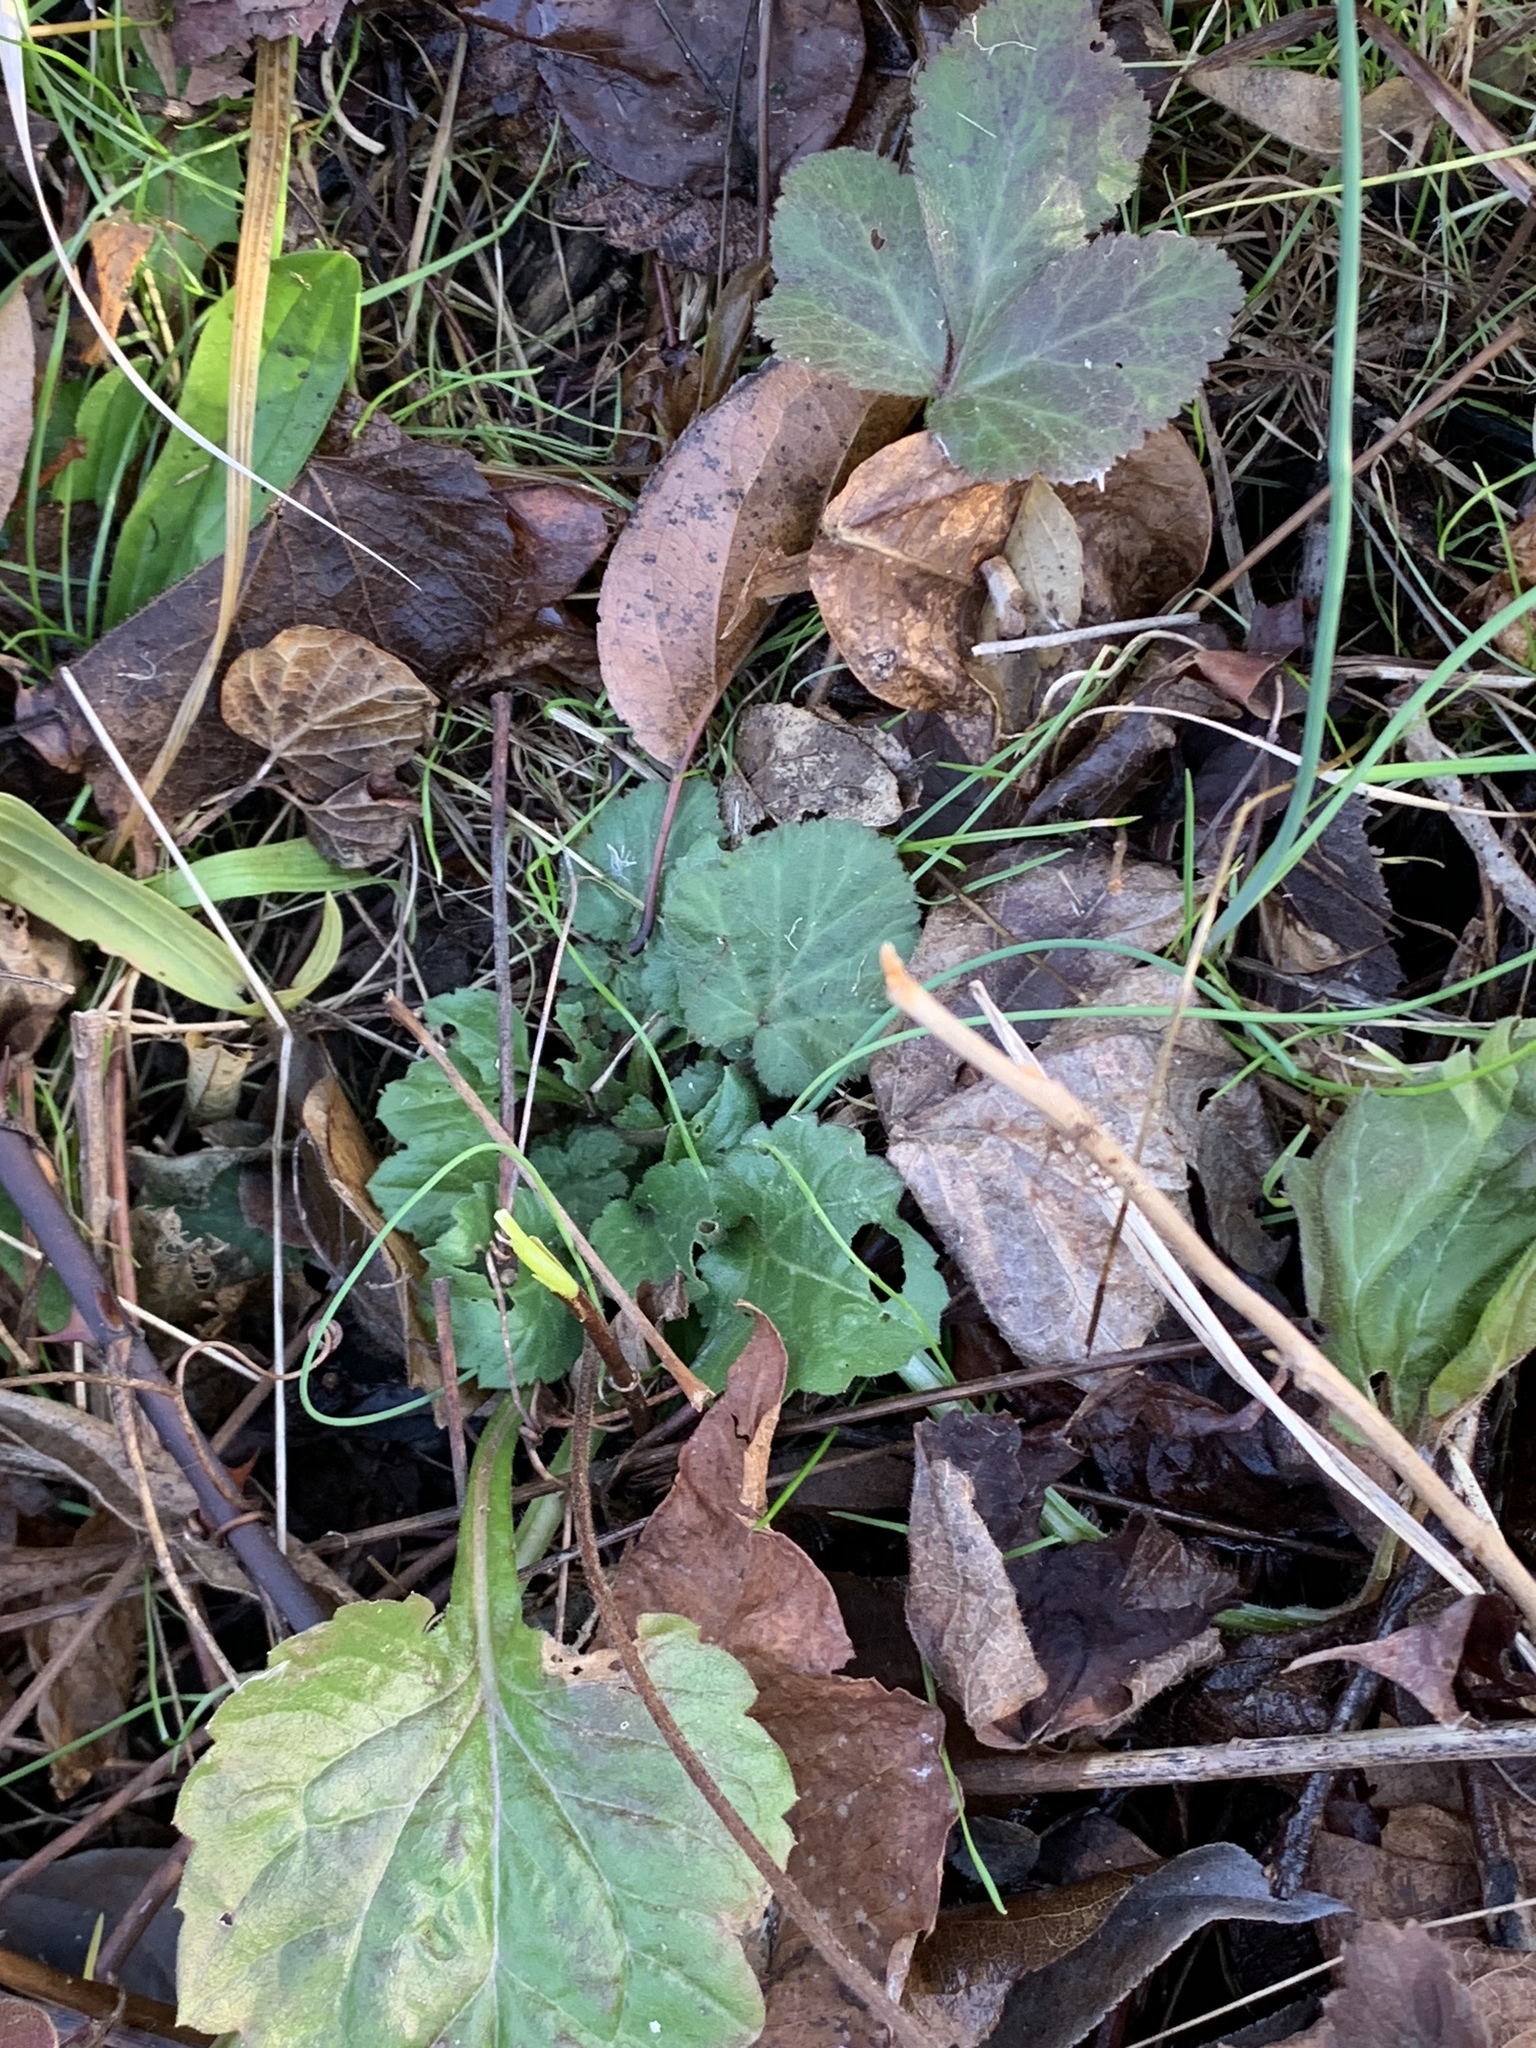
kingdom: Plantae
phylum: Tracheophyta
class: Magnoliopsida
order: Rosales
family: Rosaceae
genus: Geum
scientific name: Geum canadense
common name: White avens
